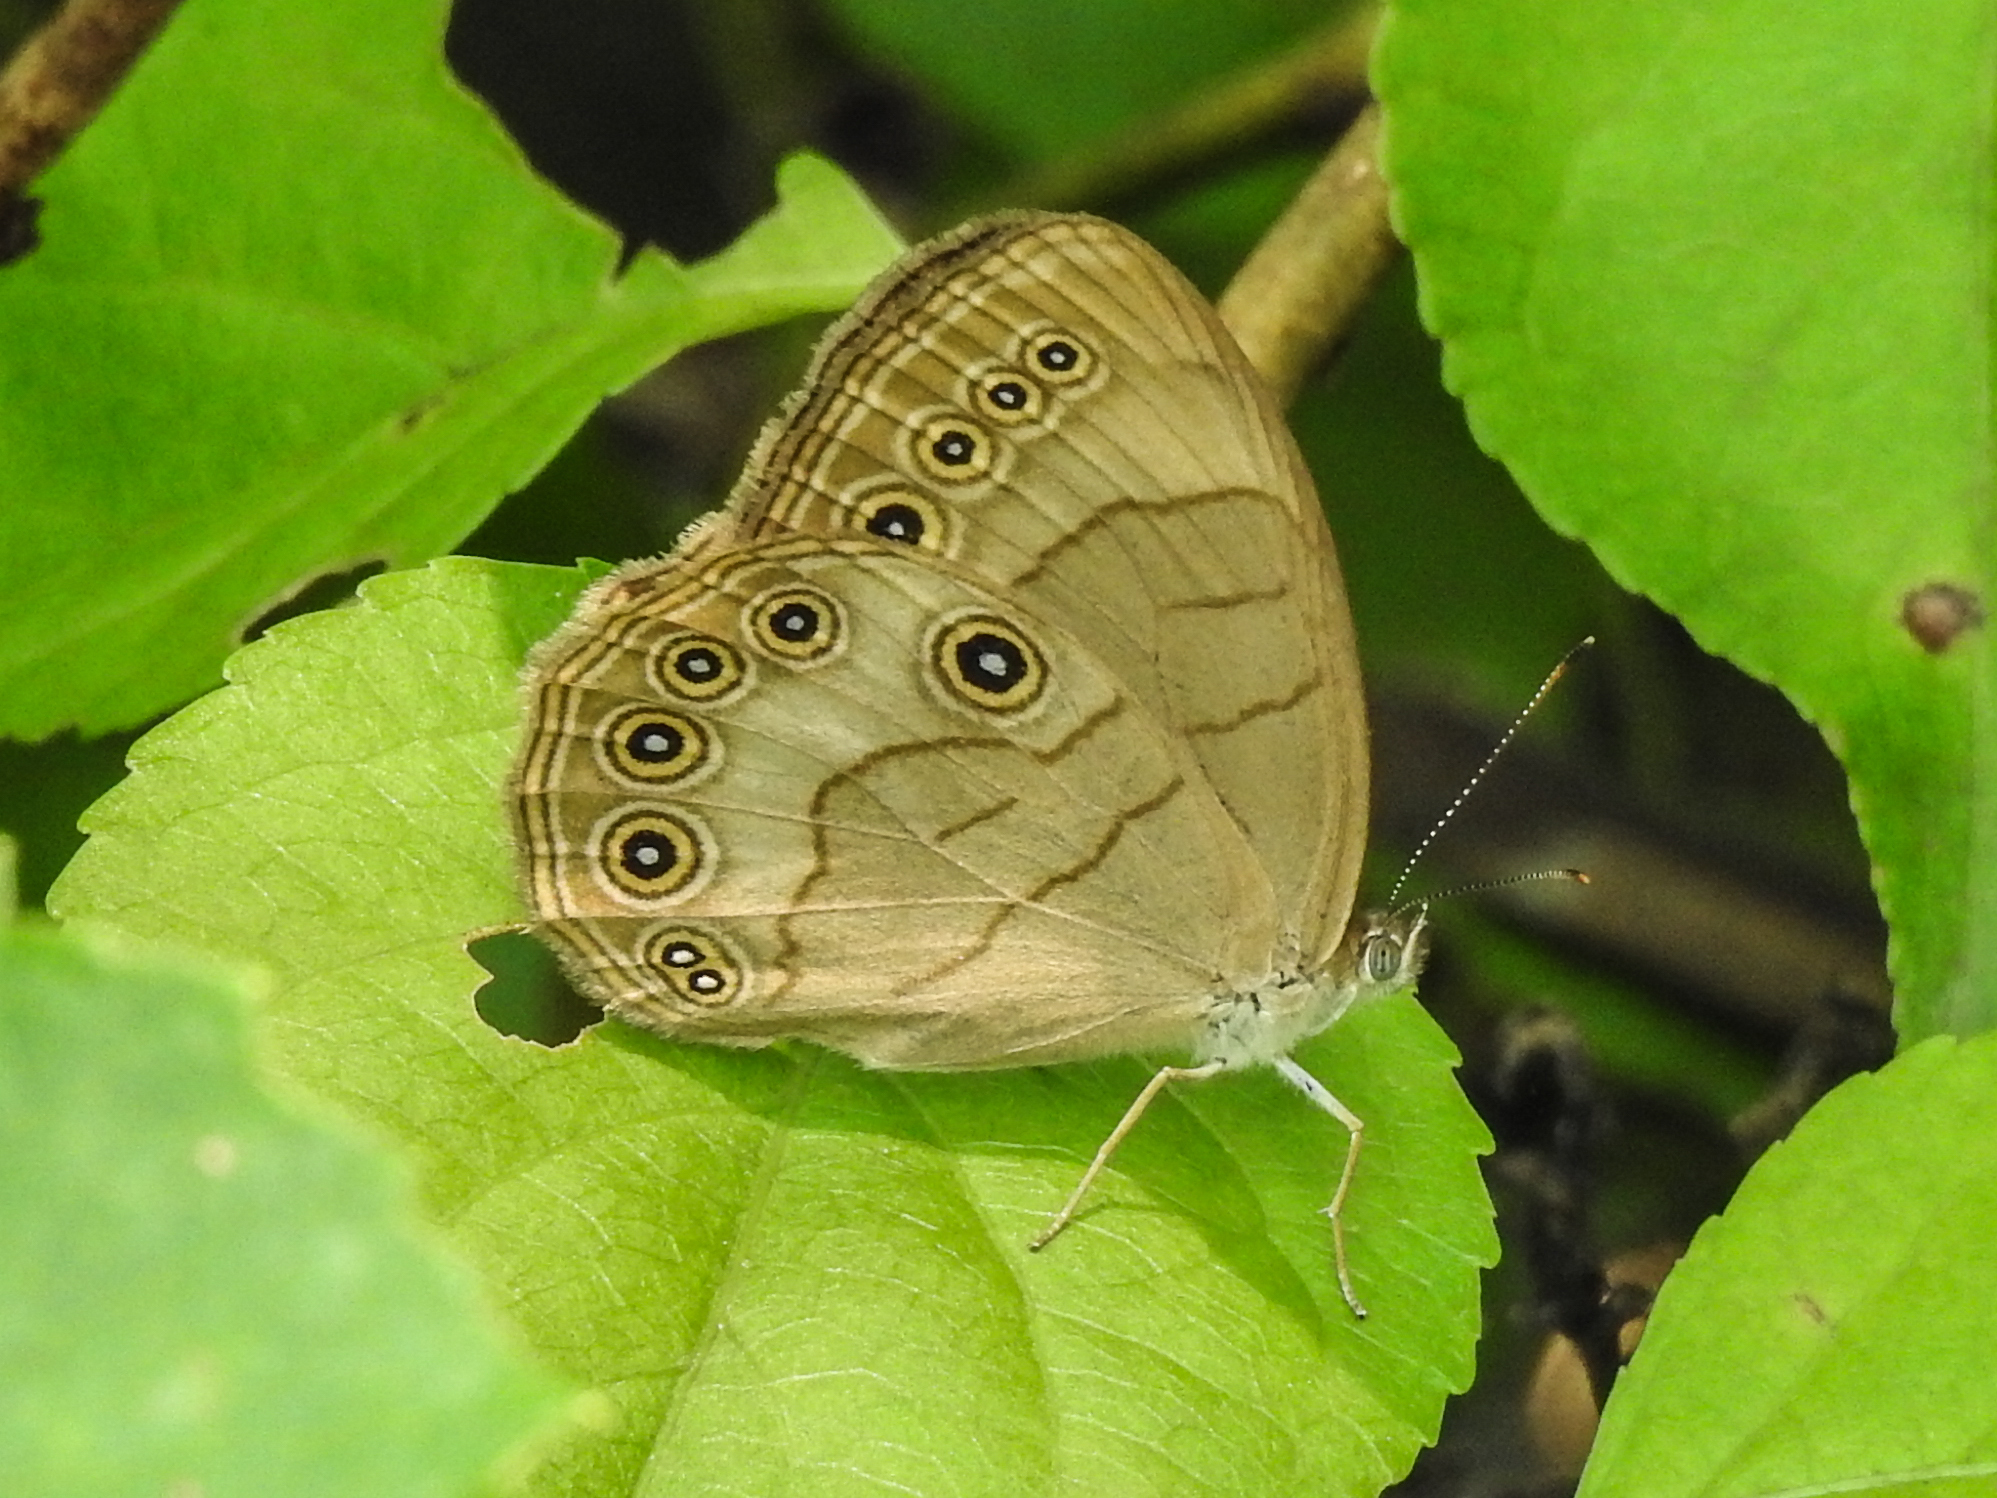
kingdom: Animalia
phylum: Arthropoda
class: Insecta
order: Lepidoptera
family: Nymphalidae
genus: Lethe
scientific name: Lethe eurydice
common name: Eyed brown
